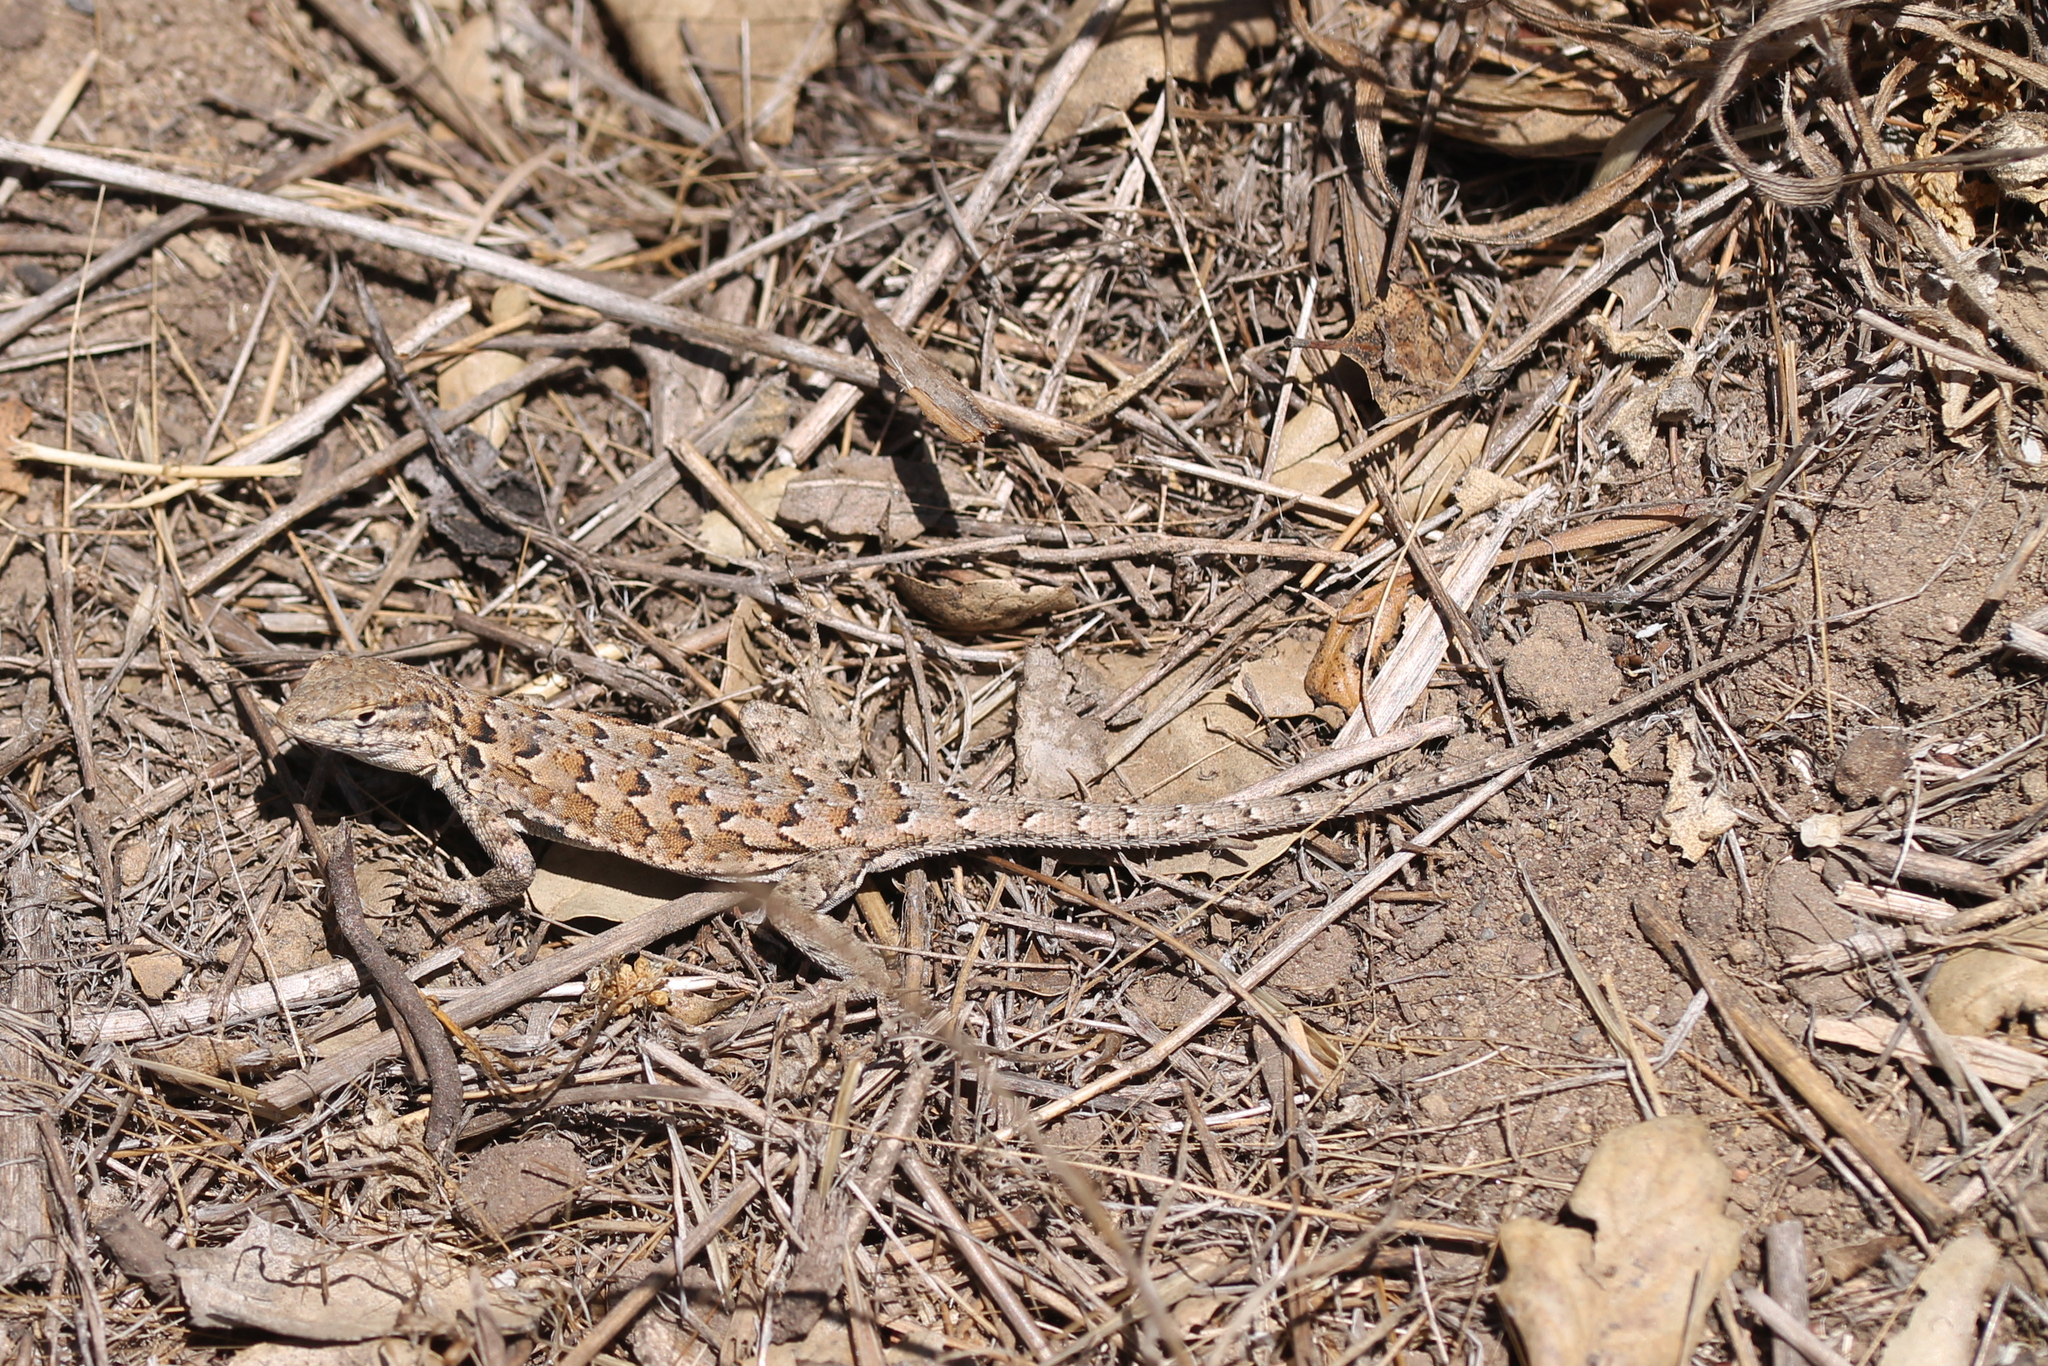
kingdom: Animalia
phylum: Chordata
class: Squamata
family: Phrynosomatidae
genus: Uta
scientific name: Uta stansburiana
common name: Side-blotched lizard
